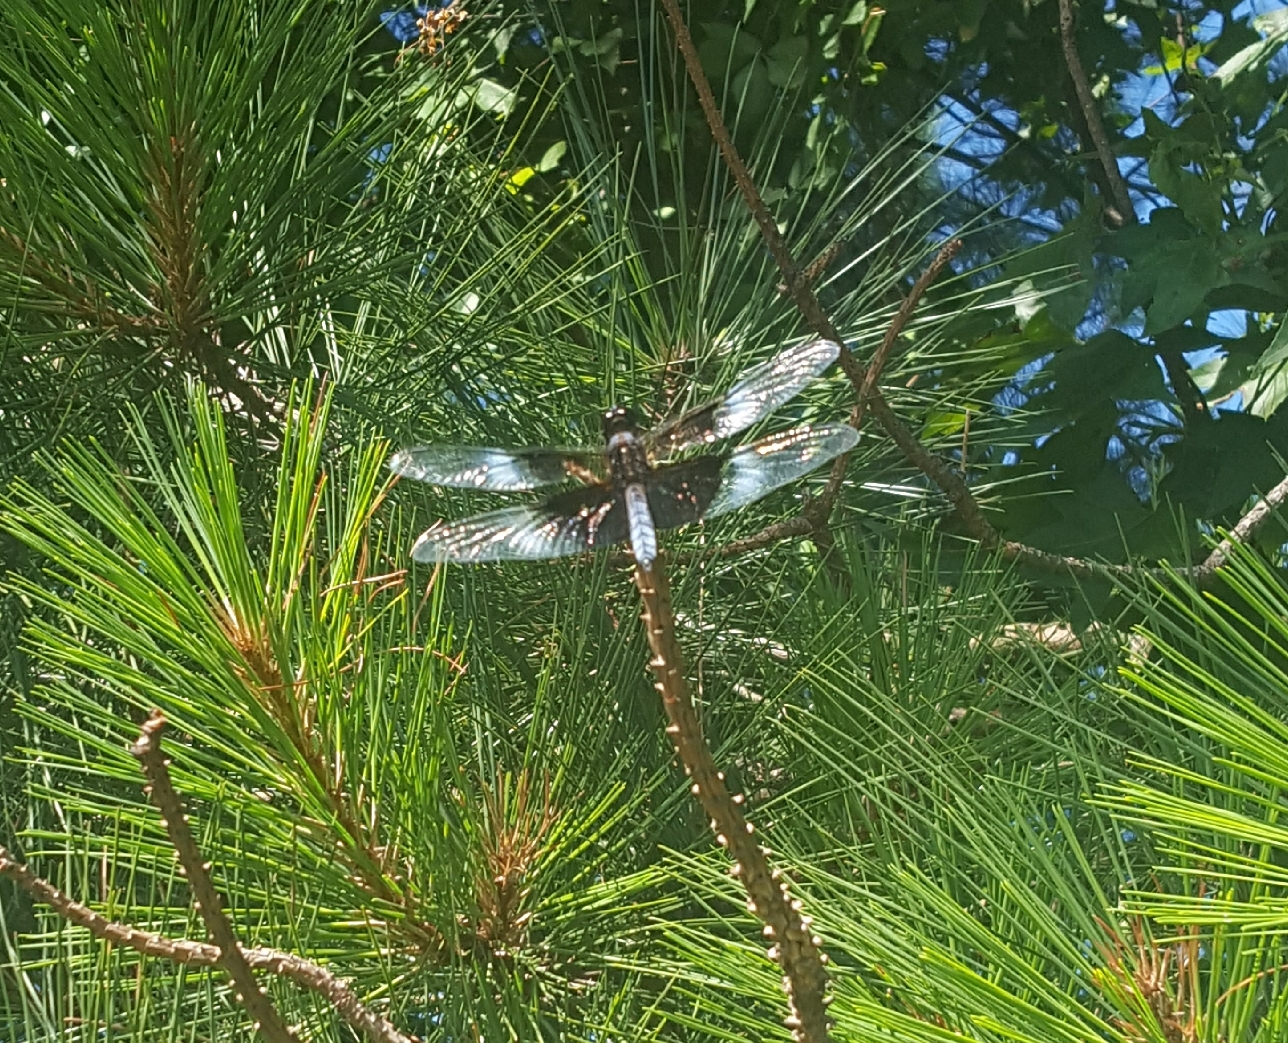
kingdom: Animalia
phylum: Arthropoda
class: Insecta
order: Odonata
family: Libellulidae
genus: Libellula
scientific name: Libellula luctuosa
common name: Widow skimmer
